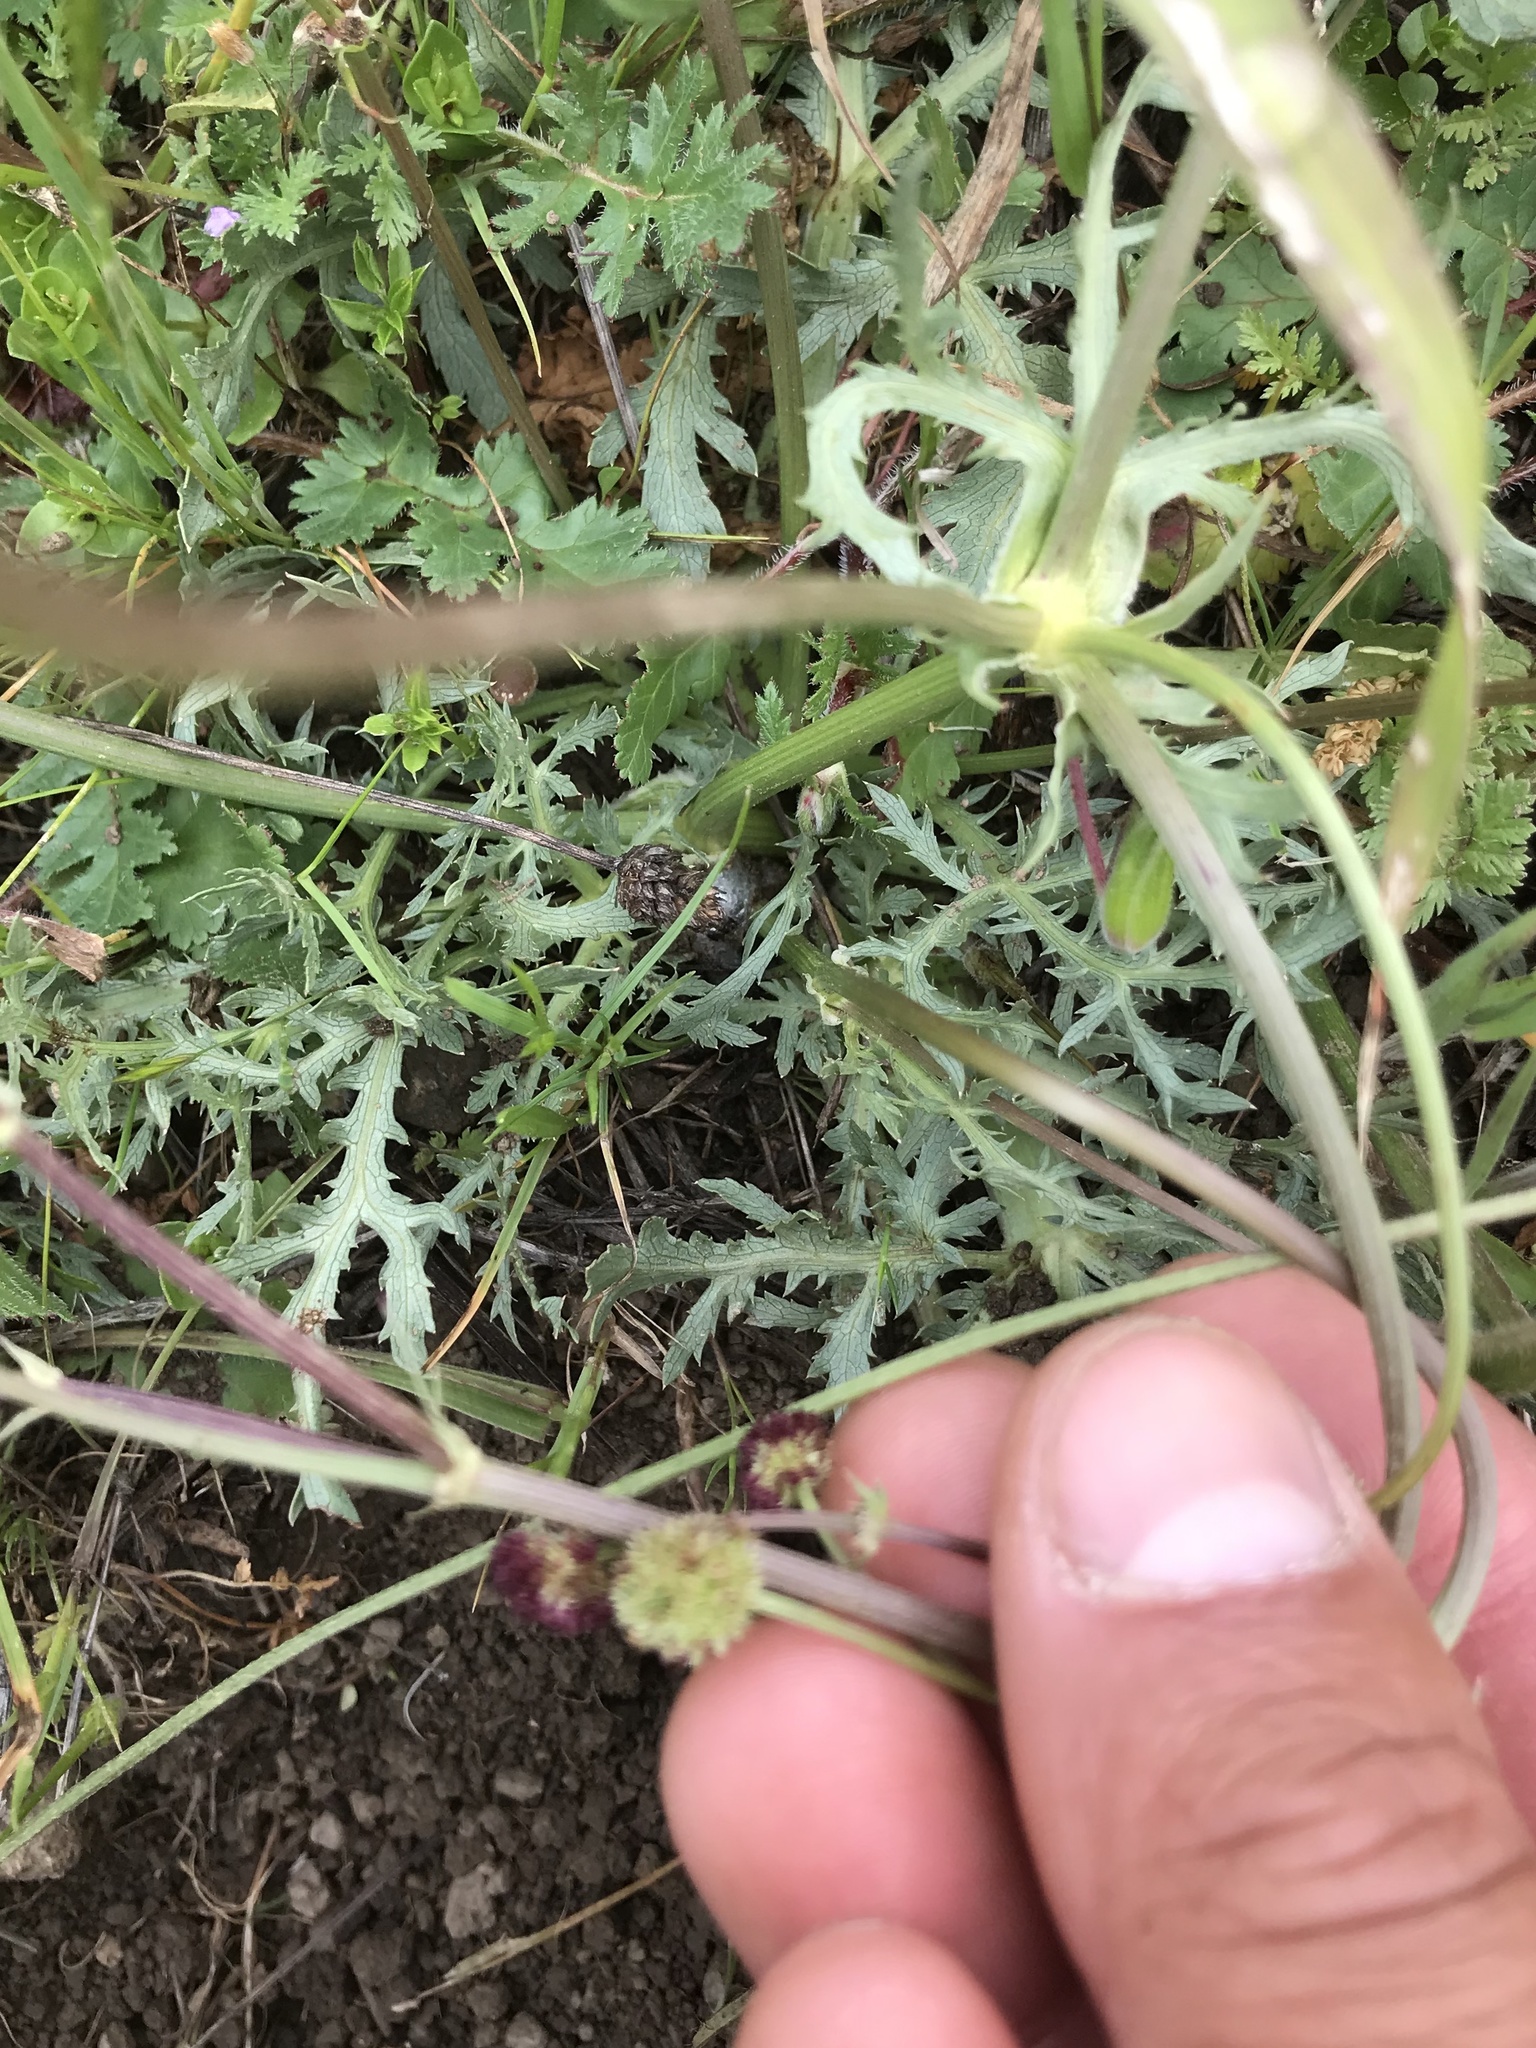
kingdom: Plantae
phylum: Tracheophyta
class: Magnoliopsida
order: Apiales
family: Apiaceae
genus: Sanicula
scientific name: Sanicula bipinnatifida
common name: Shoe-buttons
